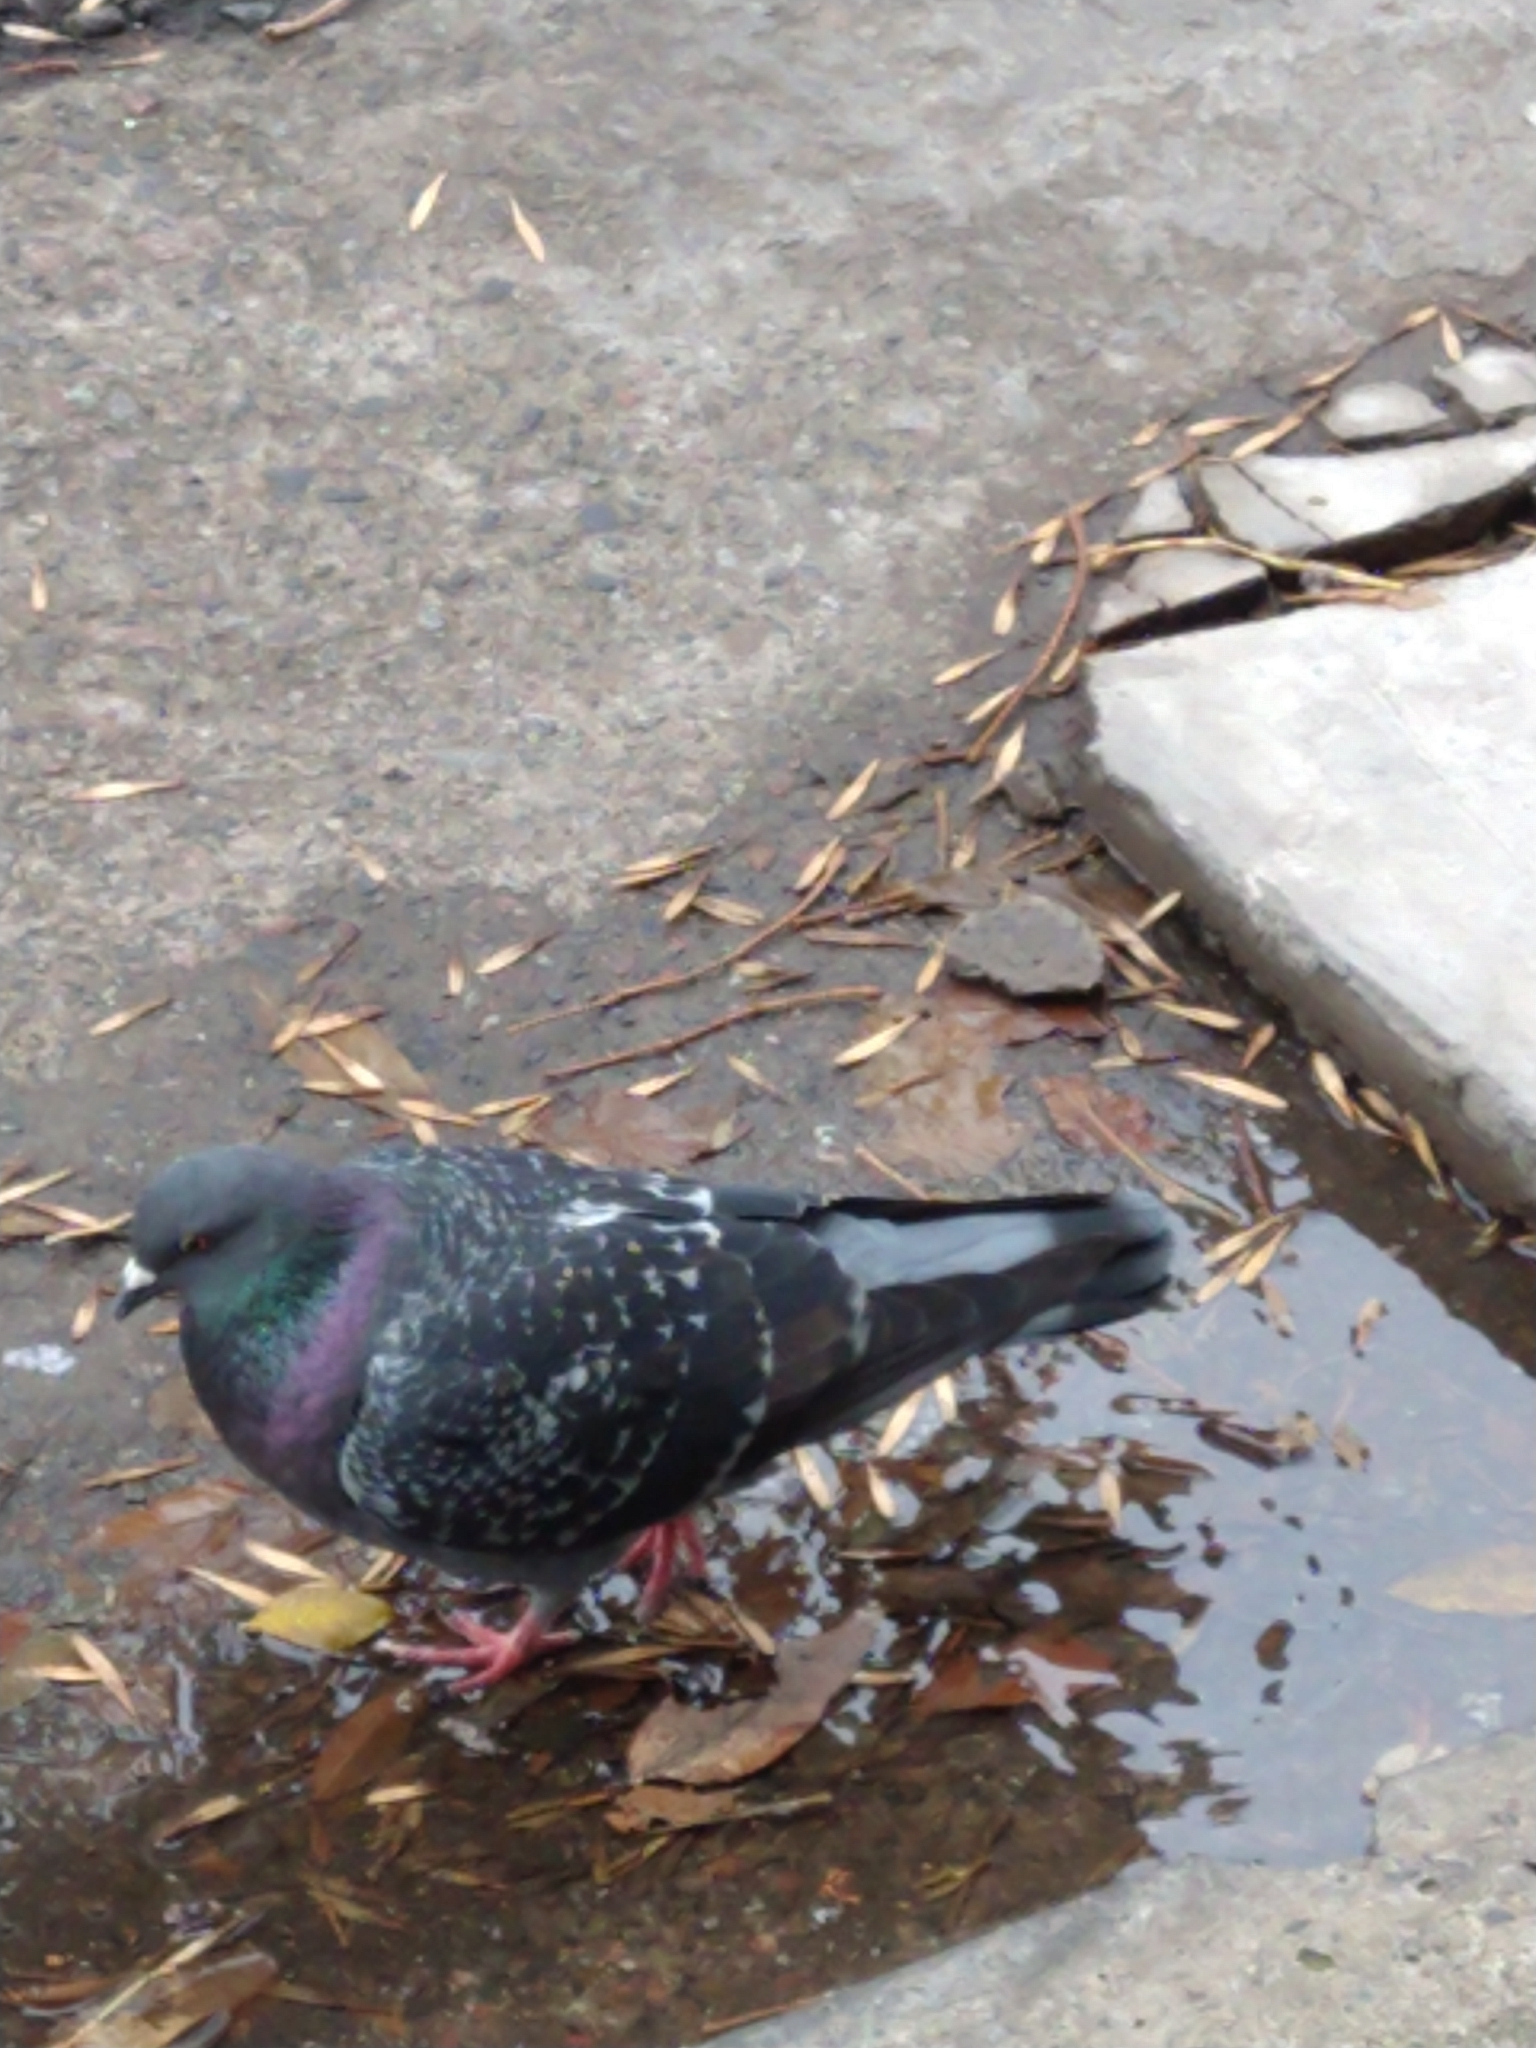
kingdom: Animalia
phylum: Chordata
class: Aves
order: Columbiformes
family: Columbidae
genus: Columba
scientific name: Columba livia
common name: Rock pigeon
